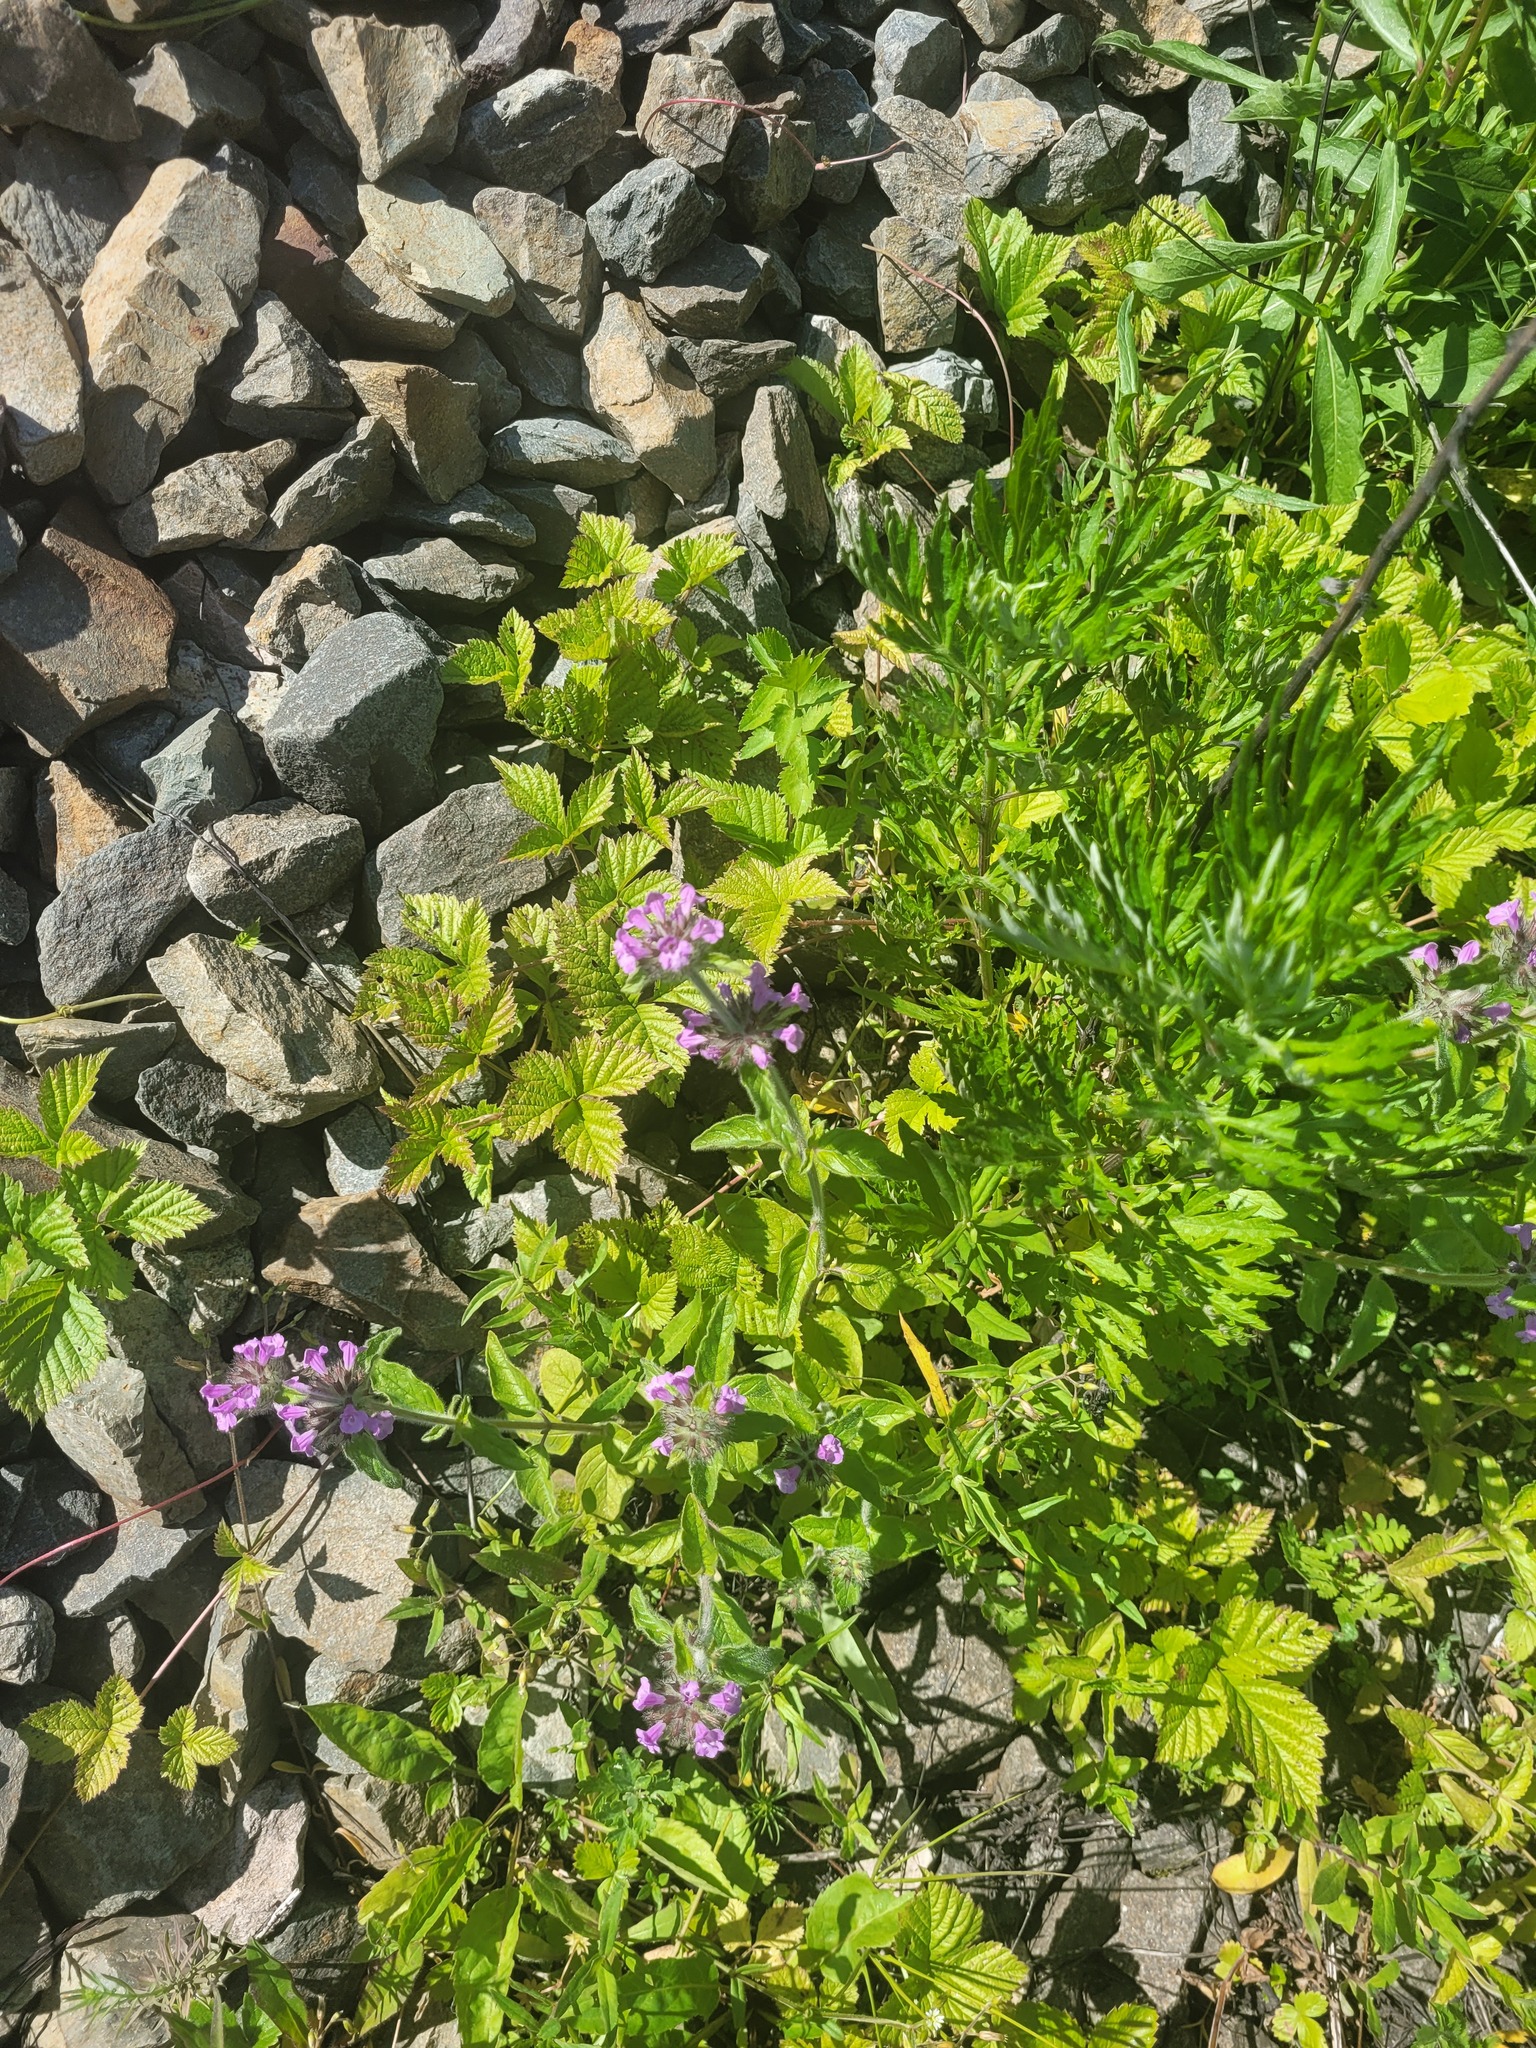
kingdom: Plantae
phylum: Tracheophyta
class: Magnoliopsida
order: Lamiales
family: Lamiaceae
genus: Clinopodium
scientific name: Clinopodium vulgare
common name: Wild basil
